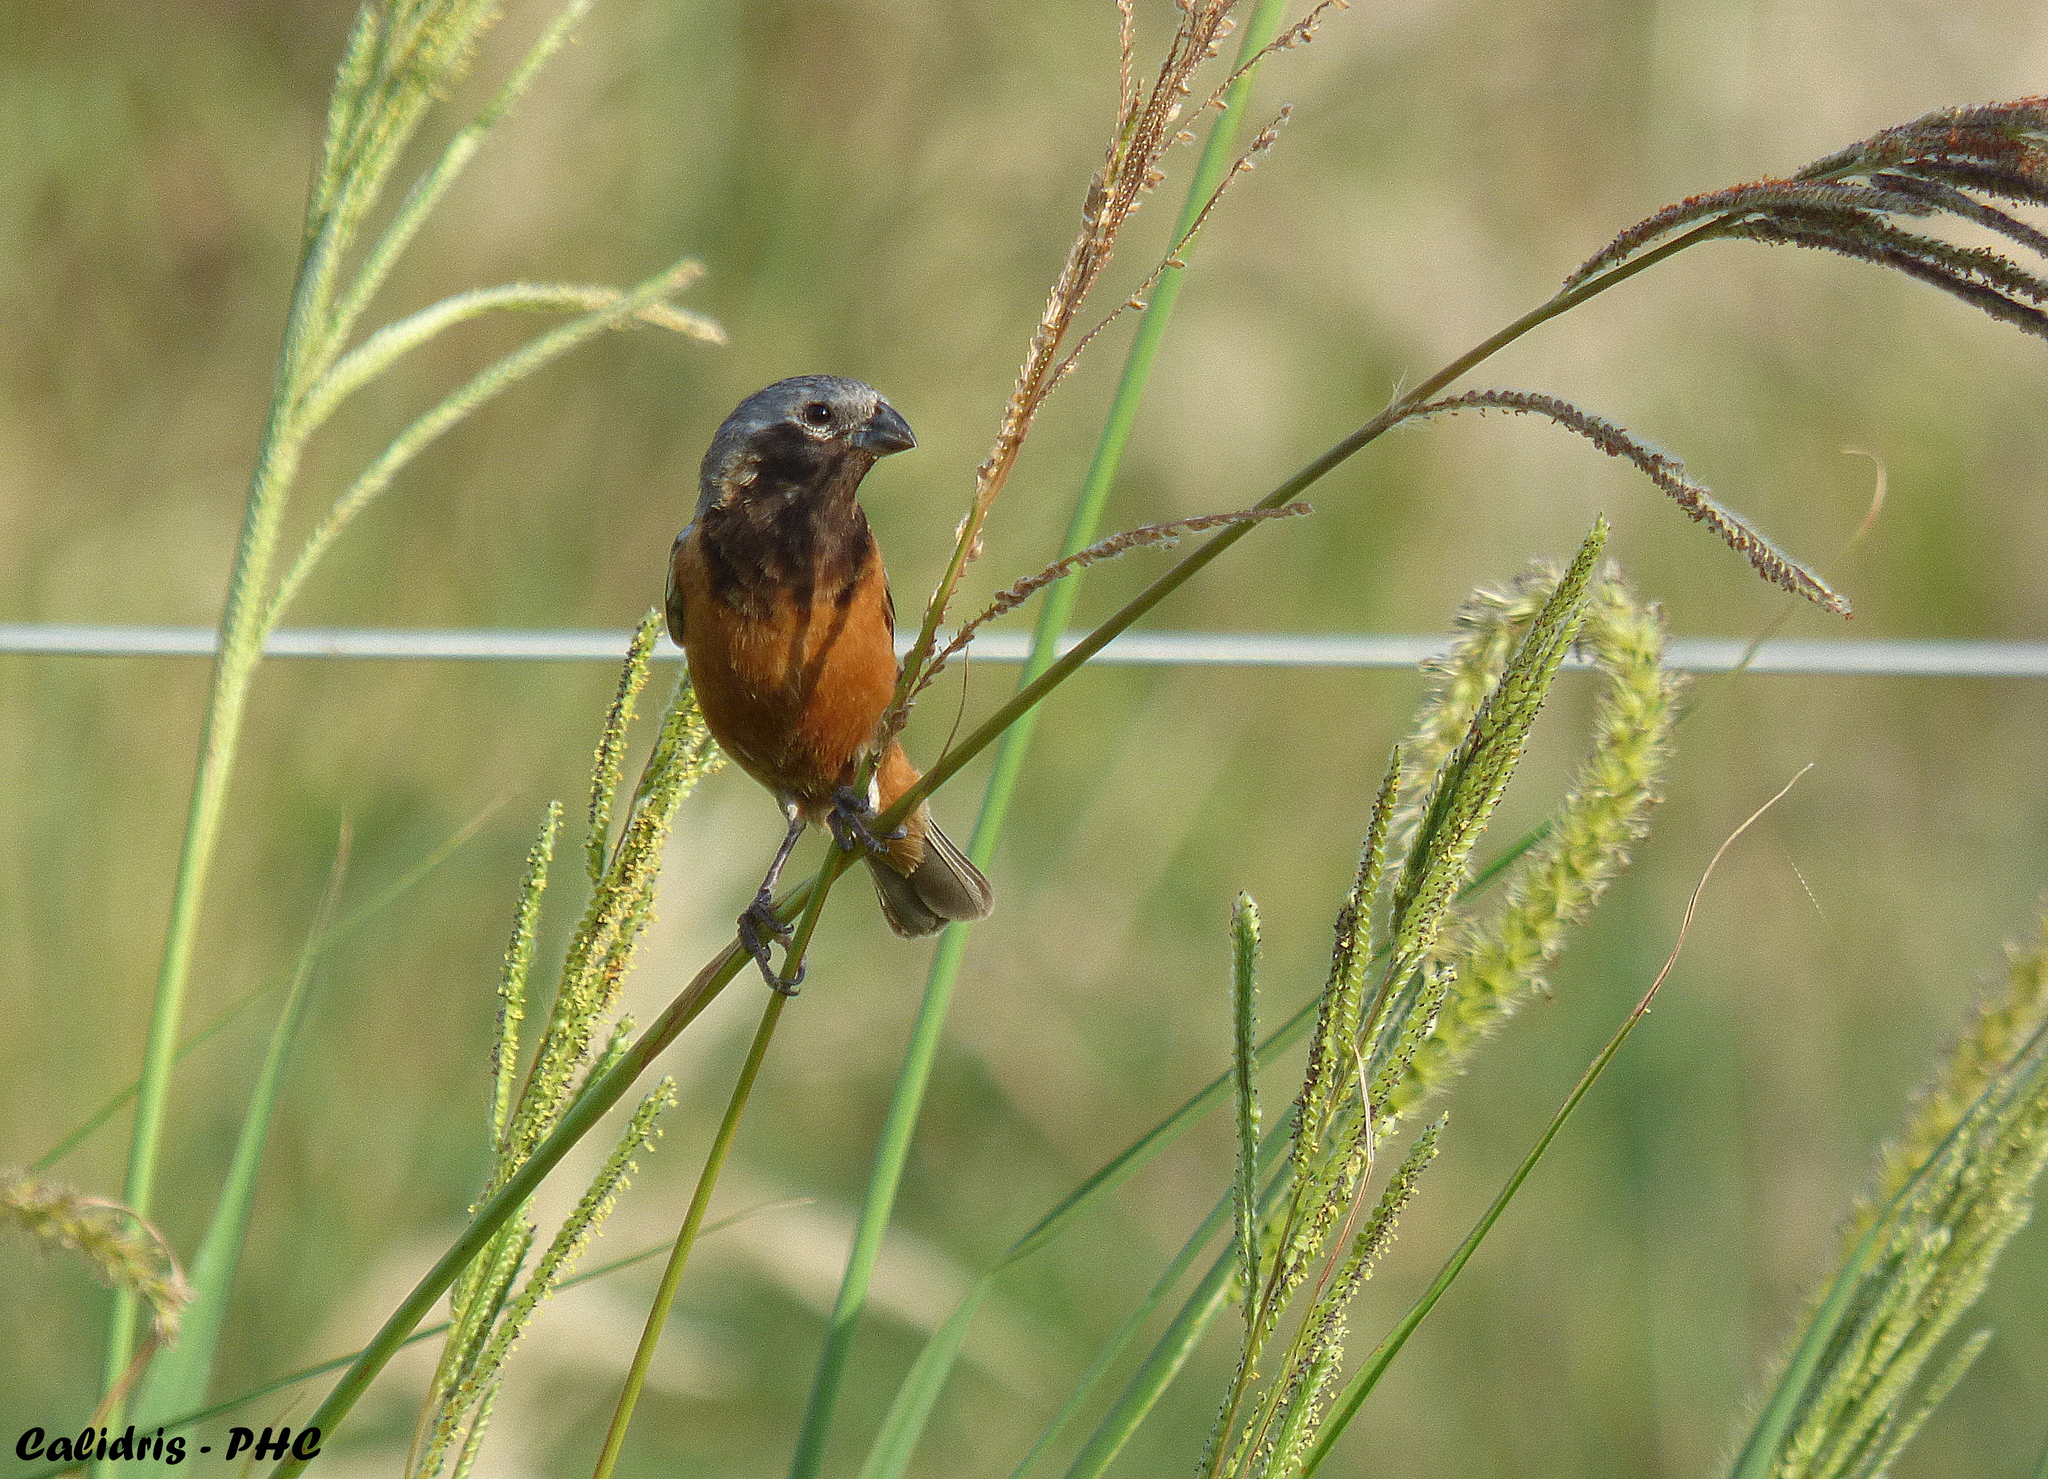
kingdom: Animalia
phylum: Chordata
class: Aves
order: Passeriformes
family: Thraupidae
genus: Sporophila
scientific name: Sporophila ruficollis
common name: Dark-throated seedeater
